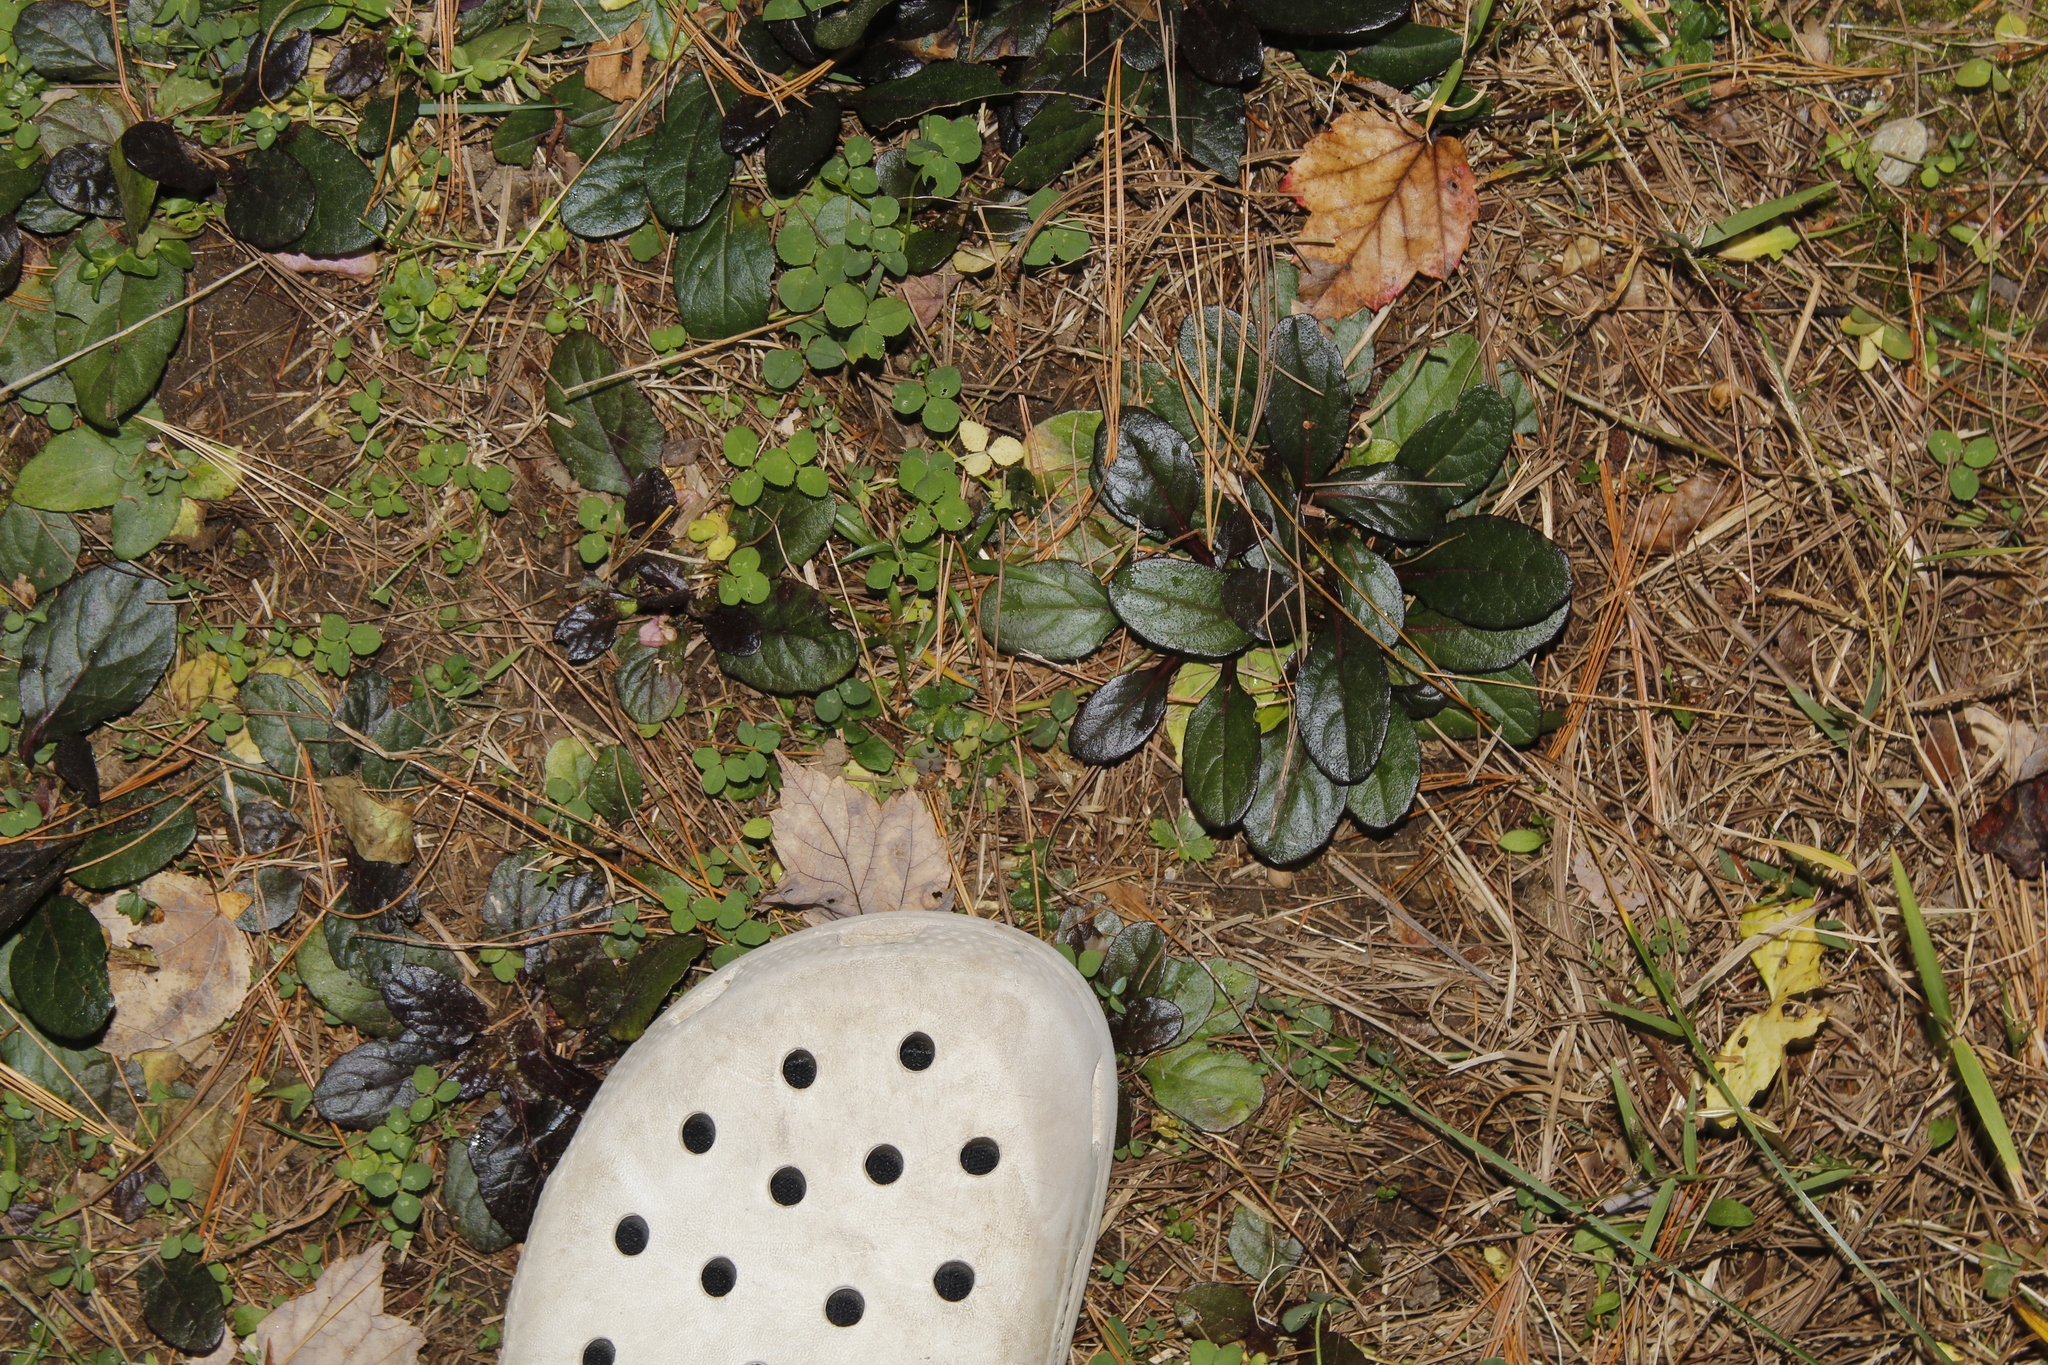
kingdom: Plantae
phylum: Tracheophyta
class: Magnoliopsida
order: Lamiales
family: Lamiaceae
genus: Ajuga
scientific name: Ajuga reptans
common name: Bugle
